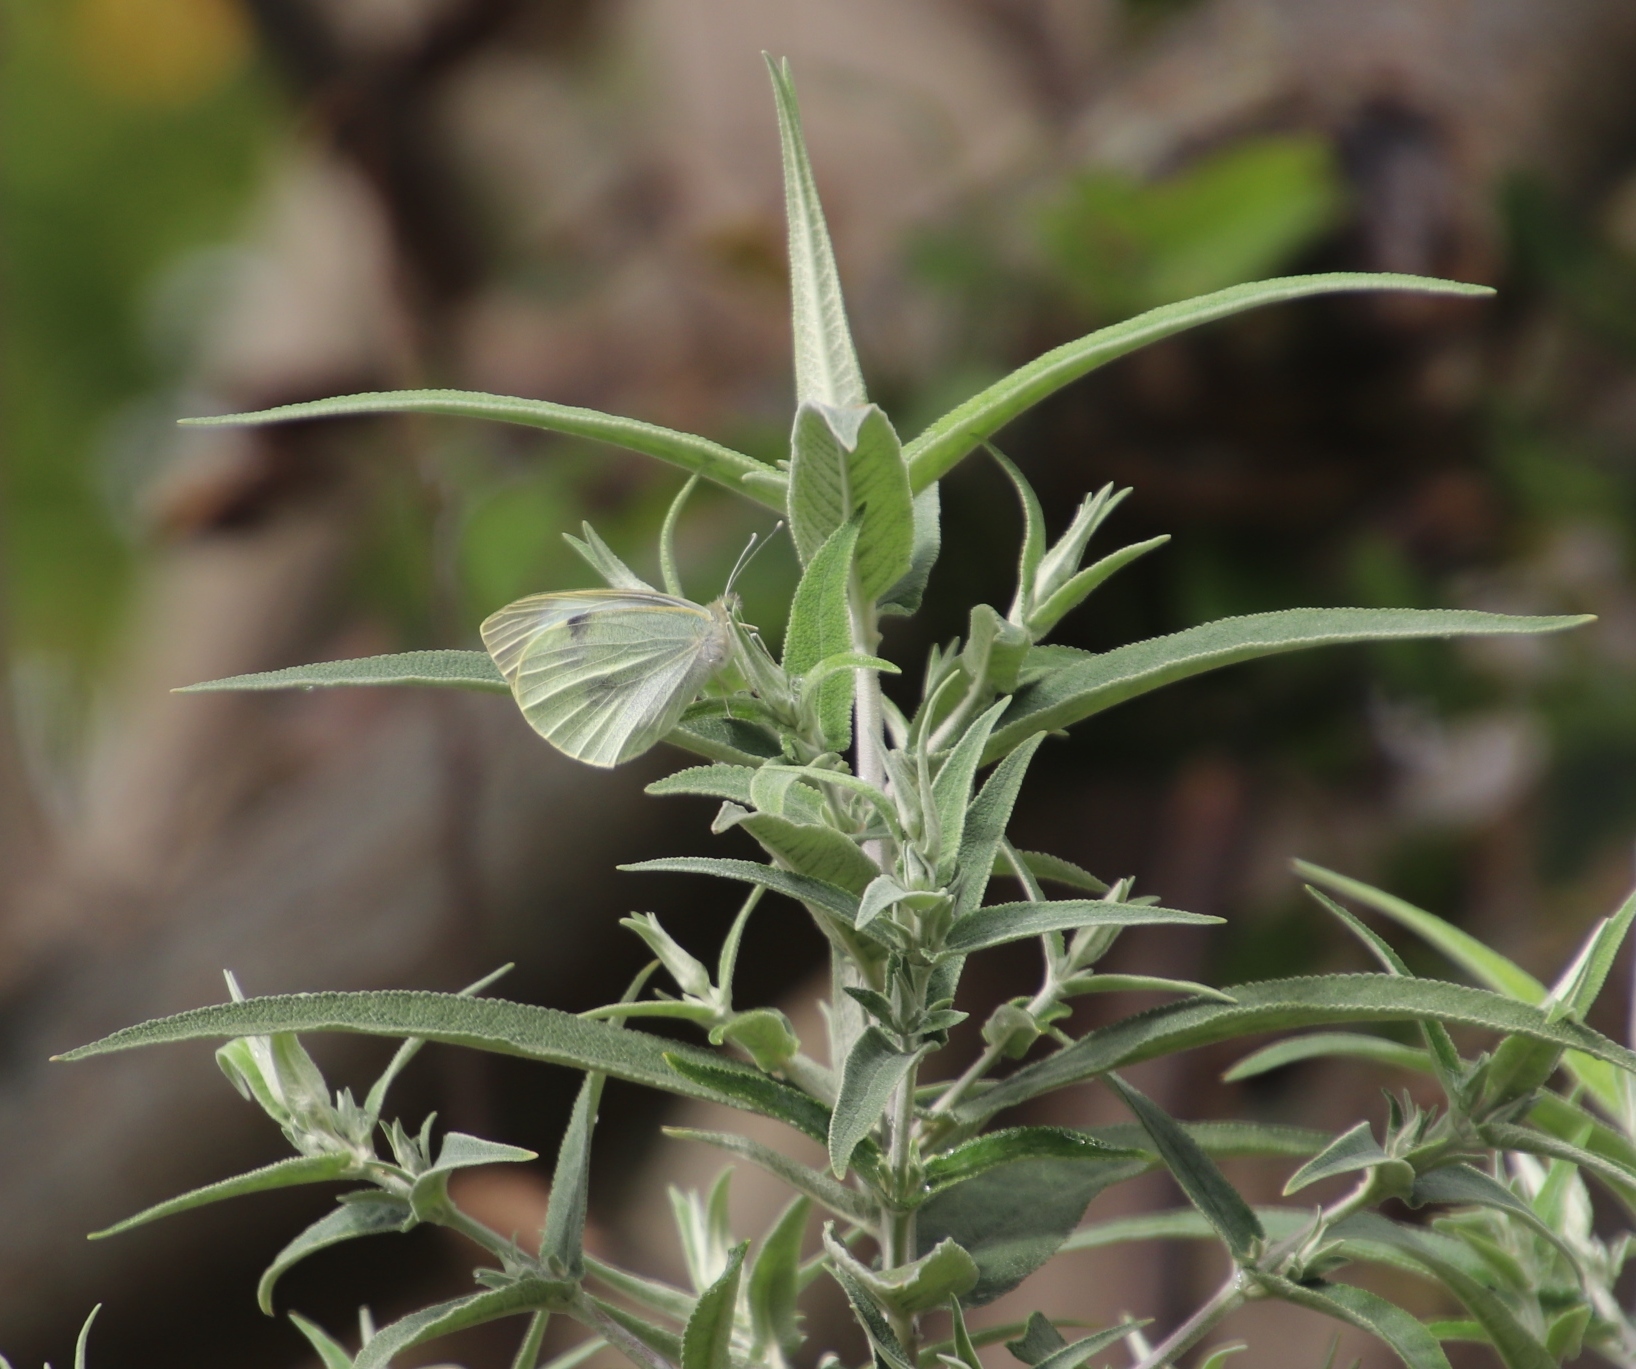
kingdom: Animalia
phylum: Arthropoda
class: Insecta
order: Lepidoptera
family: Pieridae
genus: Pieris
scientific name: Pieris brassicae
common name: Large white
